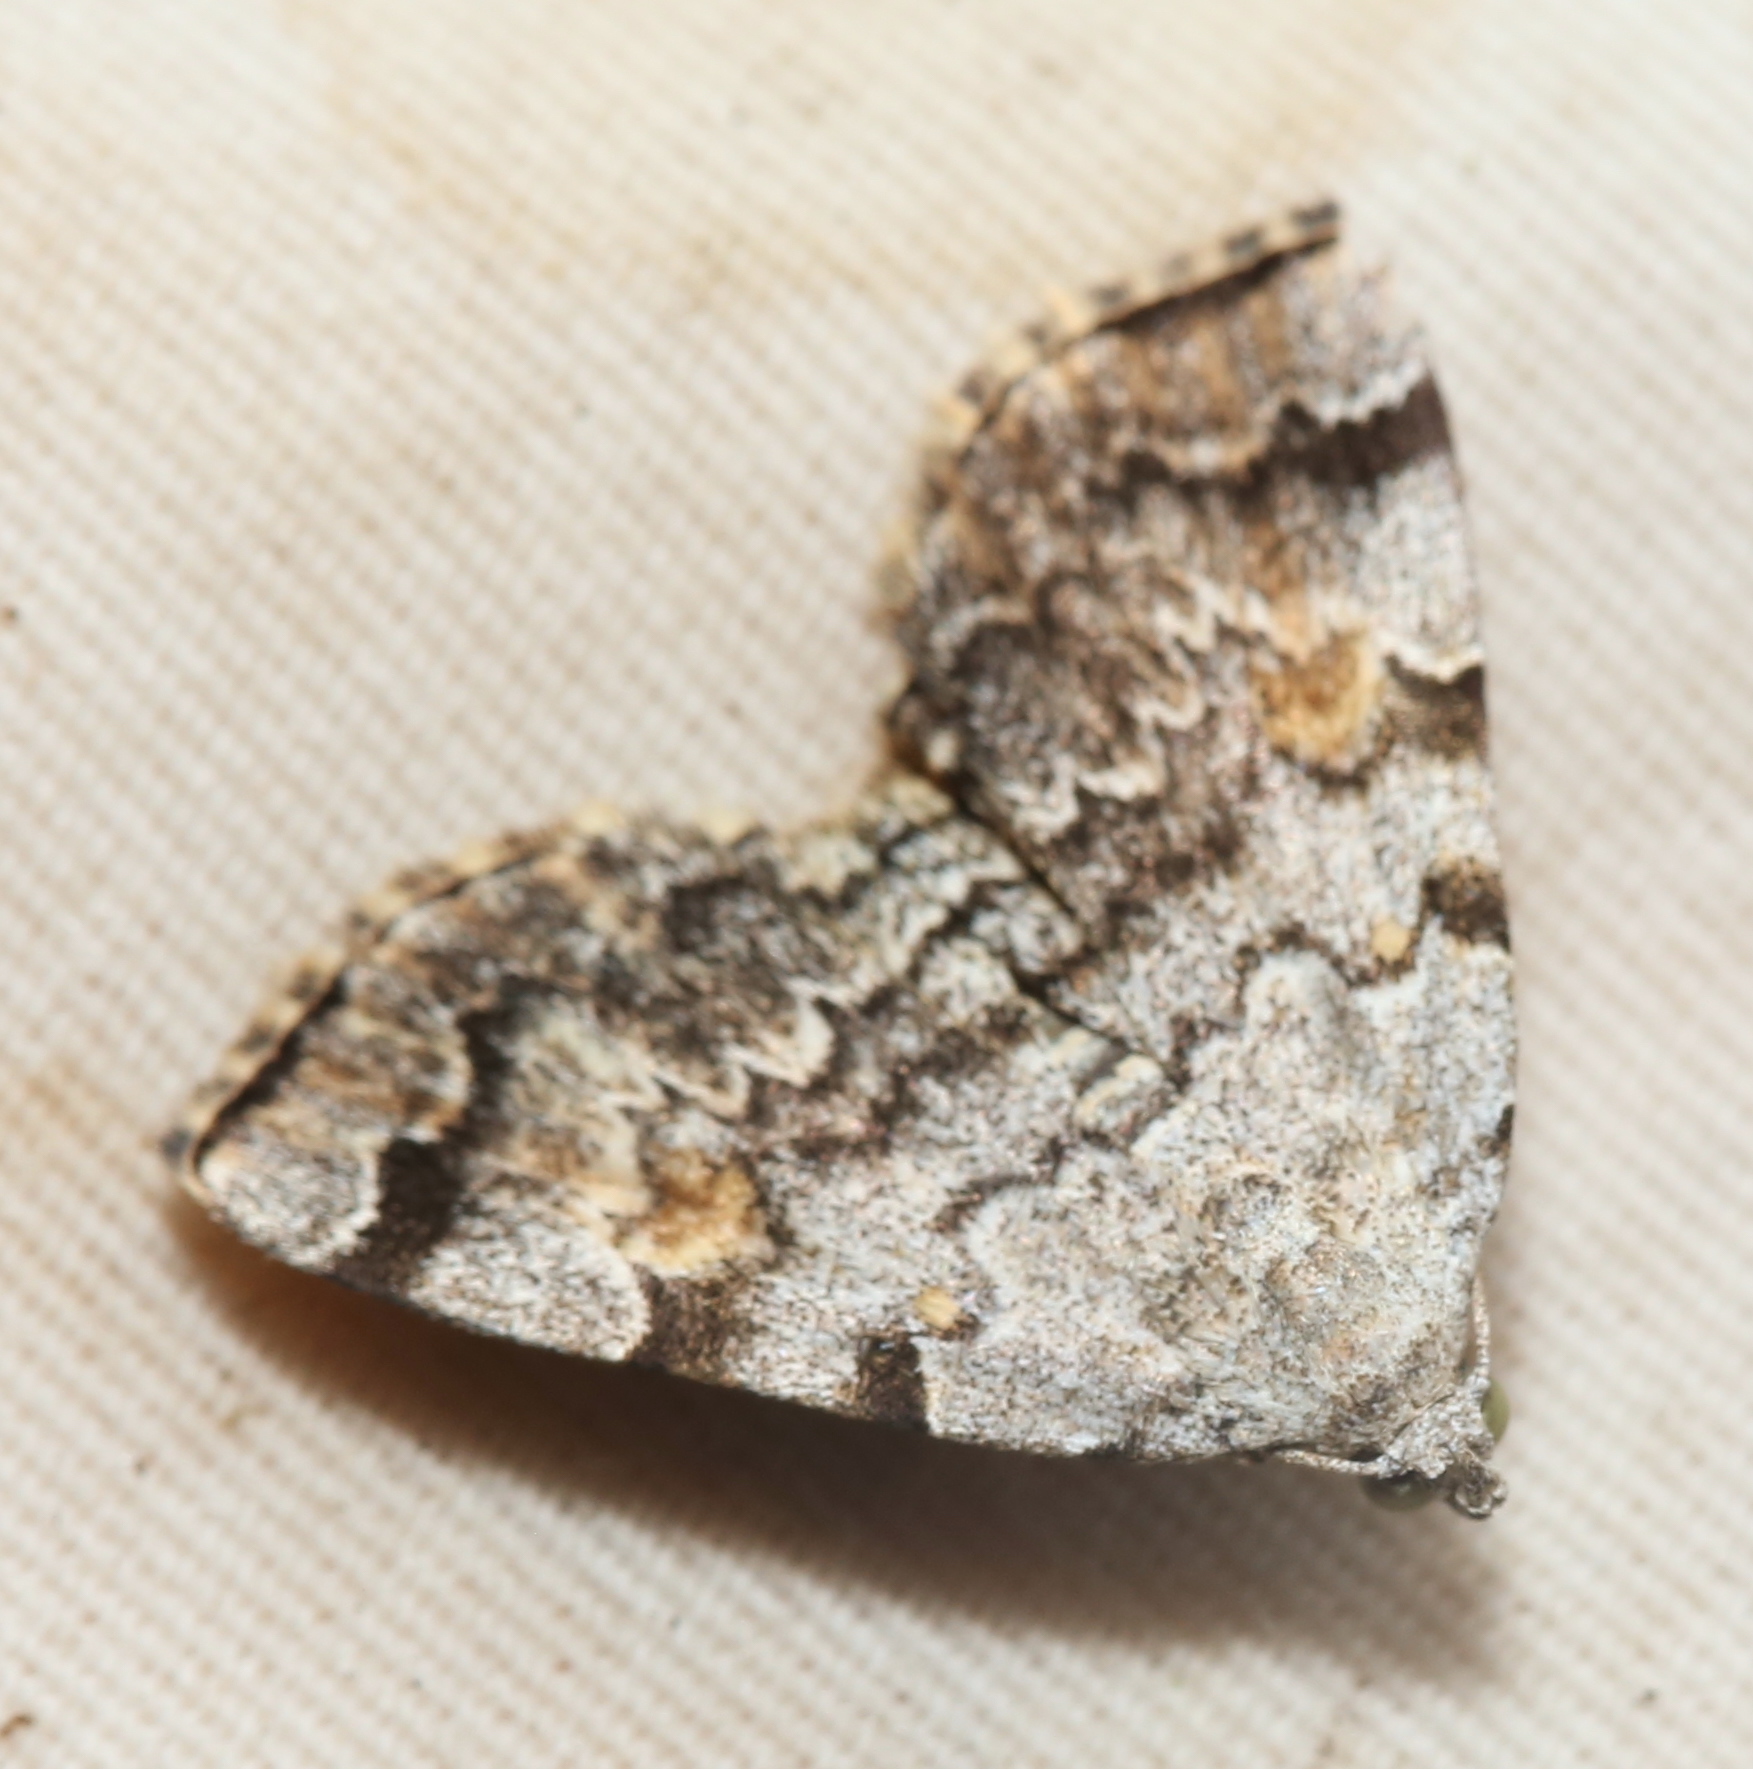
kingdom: Animalia
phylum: Arthropoda
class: Insecta
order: Lepidoptera
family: Erebidae
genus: Idia
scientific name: Idia americalis
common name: American idia moth
